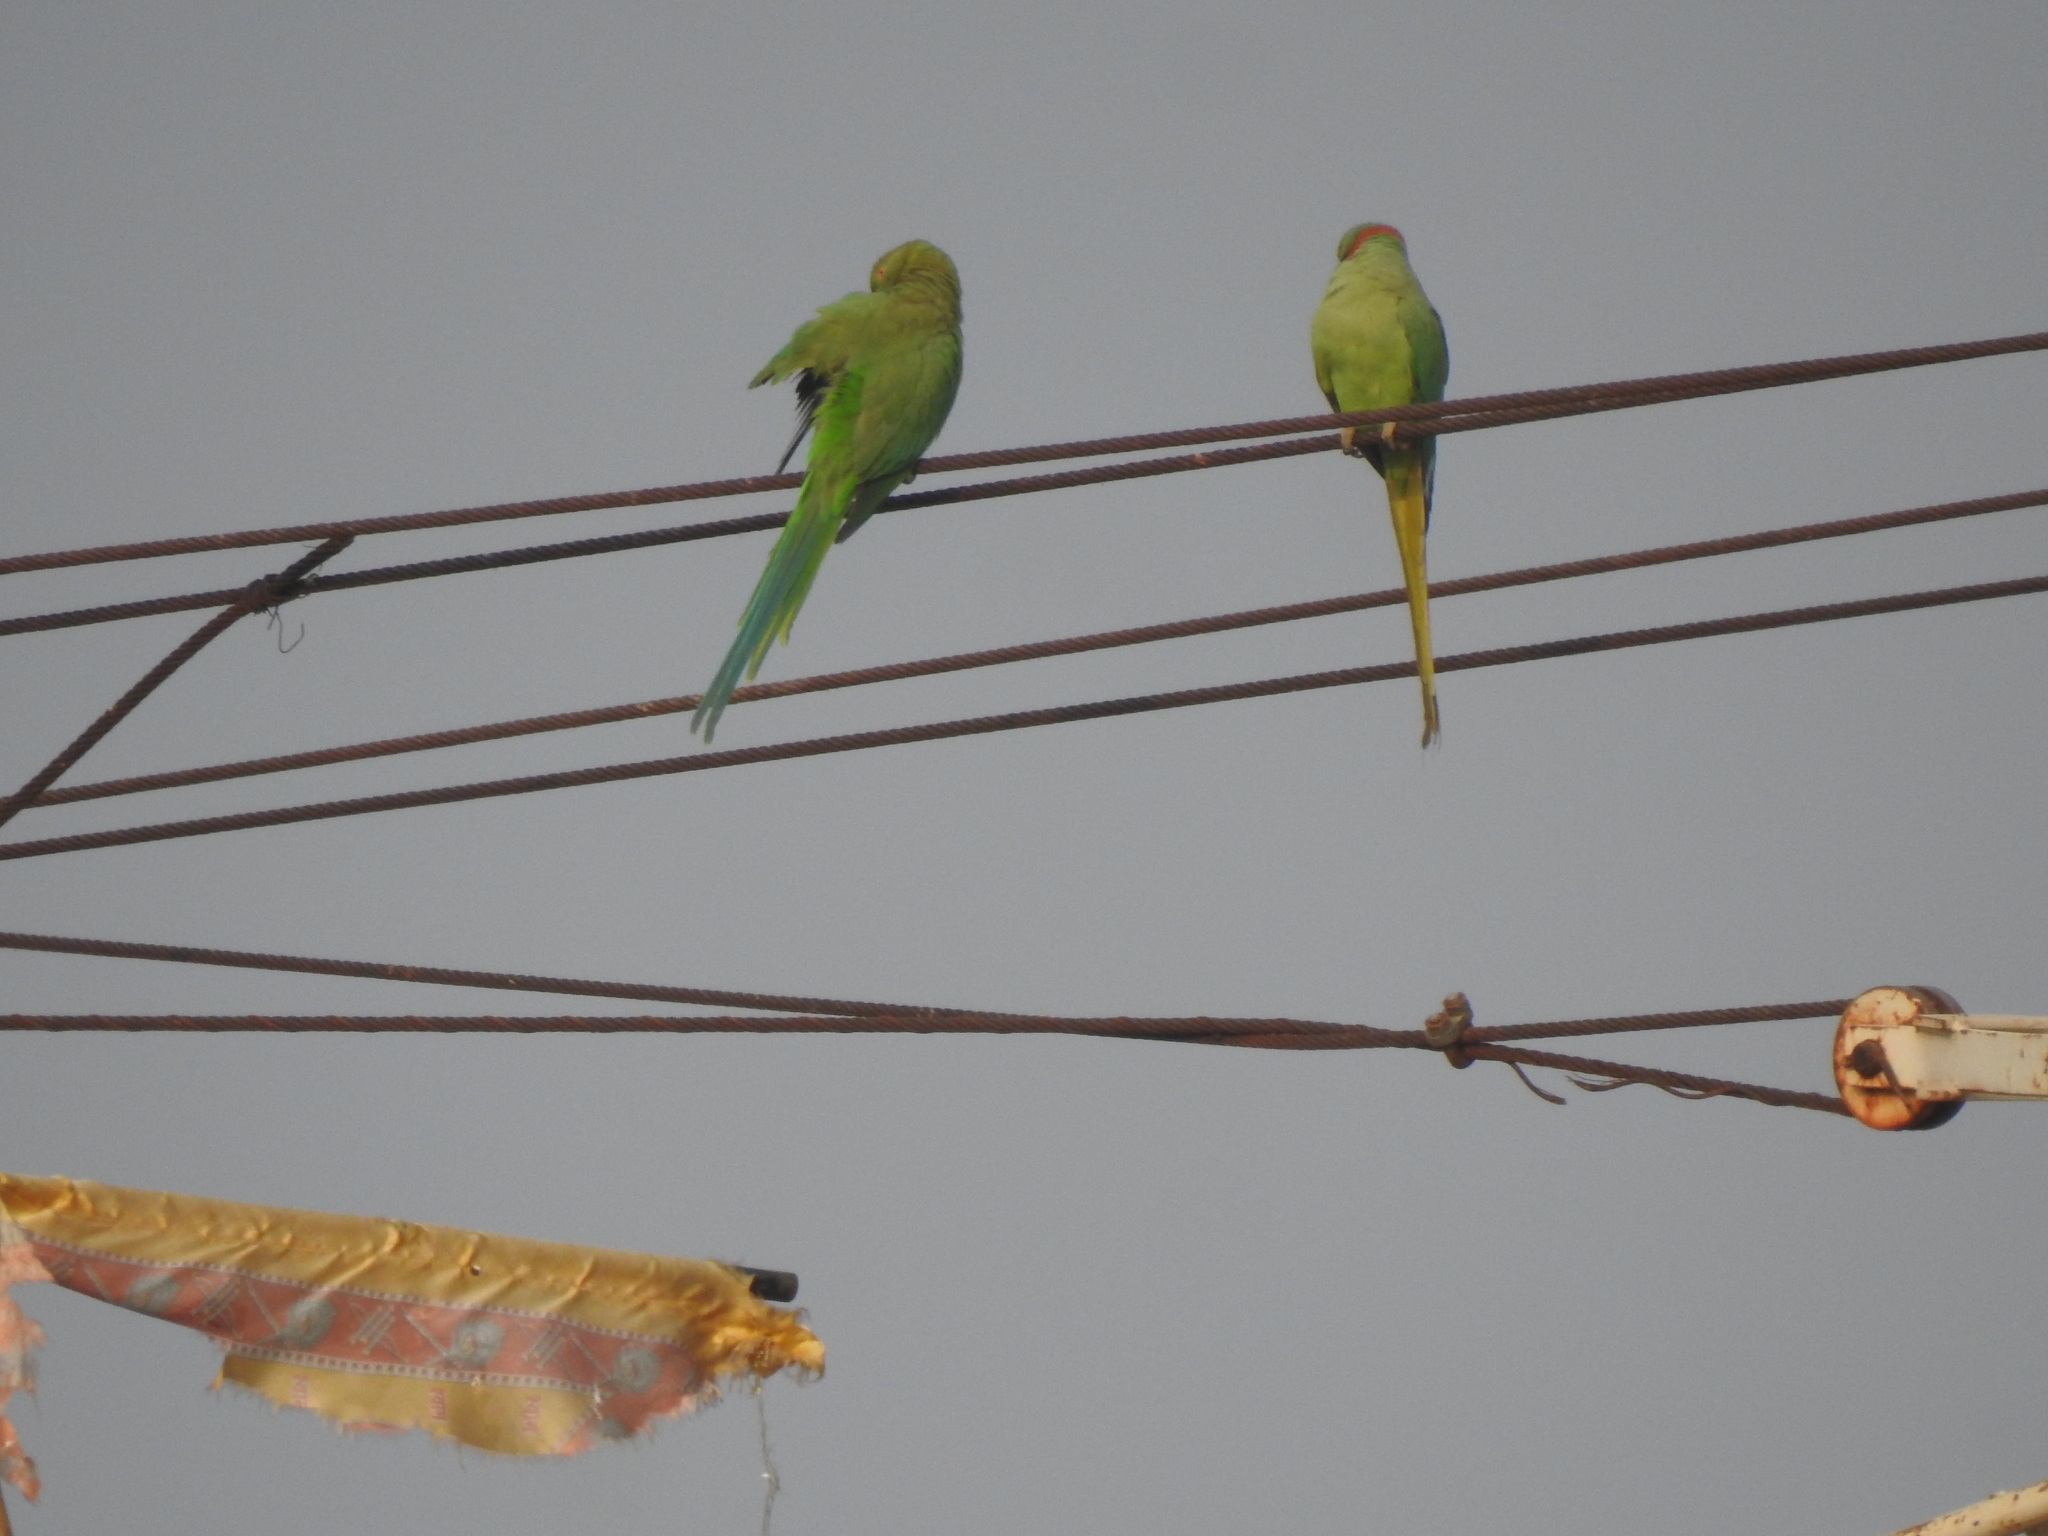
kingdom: Animalia
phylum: Chordata
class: Aves
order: Psittaciformes
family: Psittacidae
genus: Psittacula
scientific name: Psittacula krameri
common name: Rose-ringed parakeet
